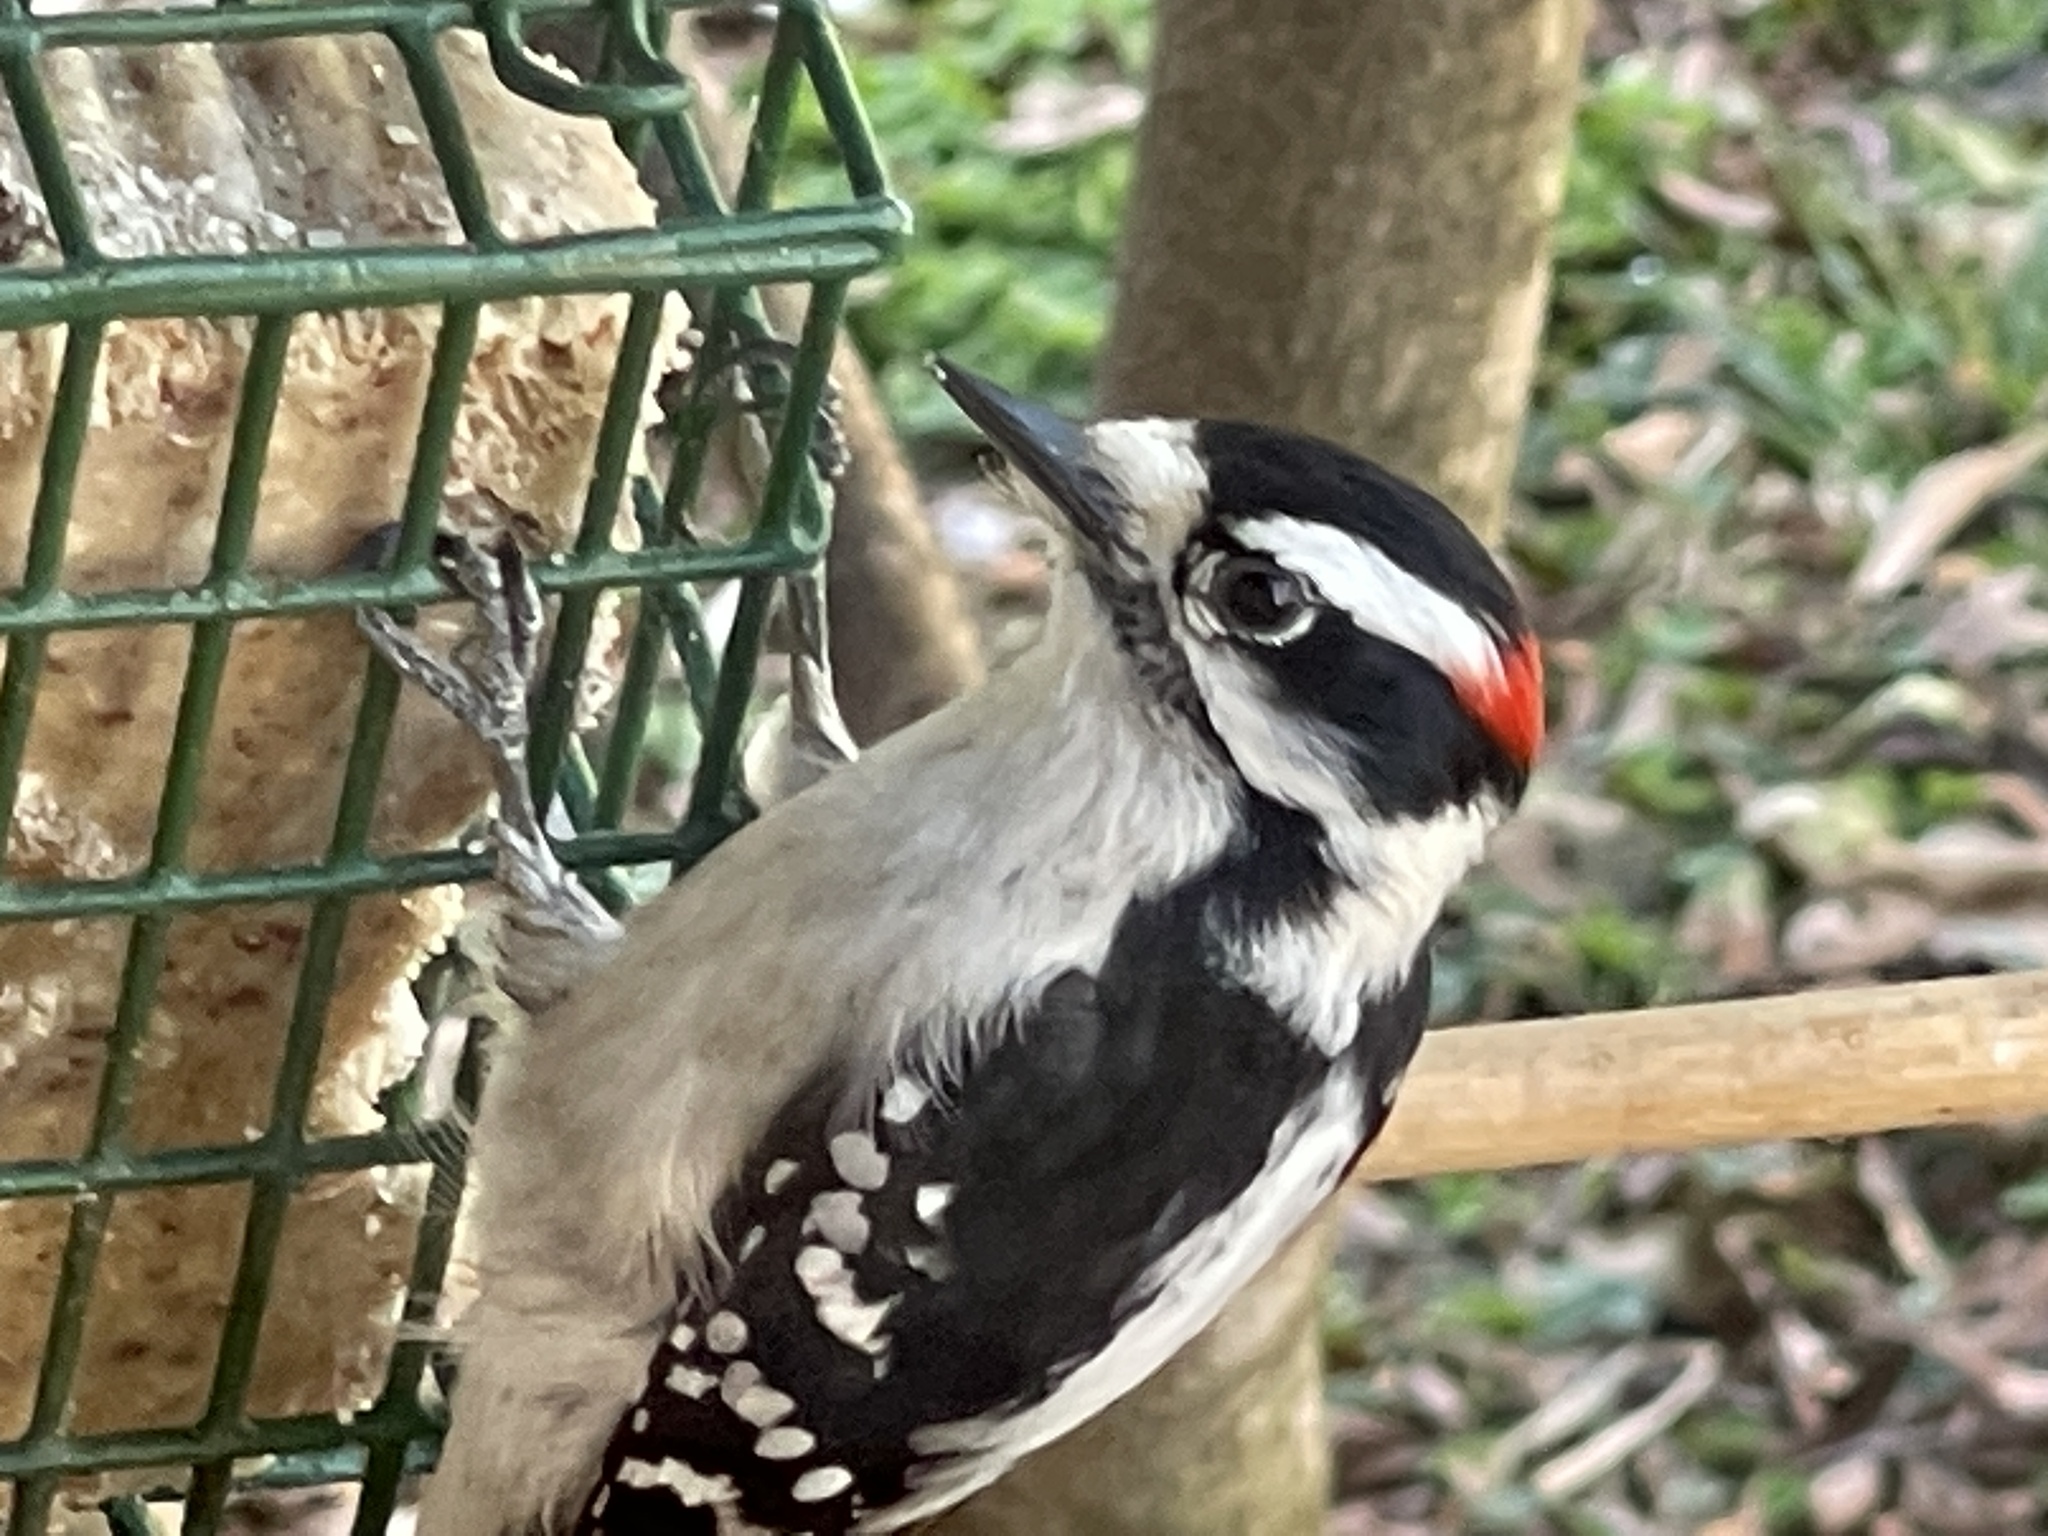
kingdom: Animalia
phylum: Chordata
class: Aves
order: Piciformes
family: Picidae
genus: Dryobates
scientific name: Dryobates pubescens
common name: Downy woodpecker
